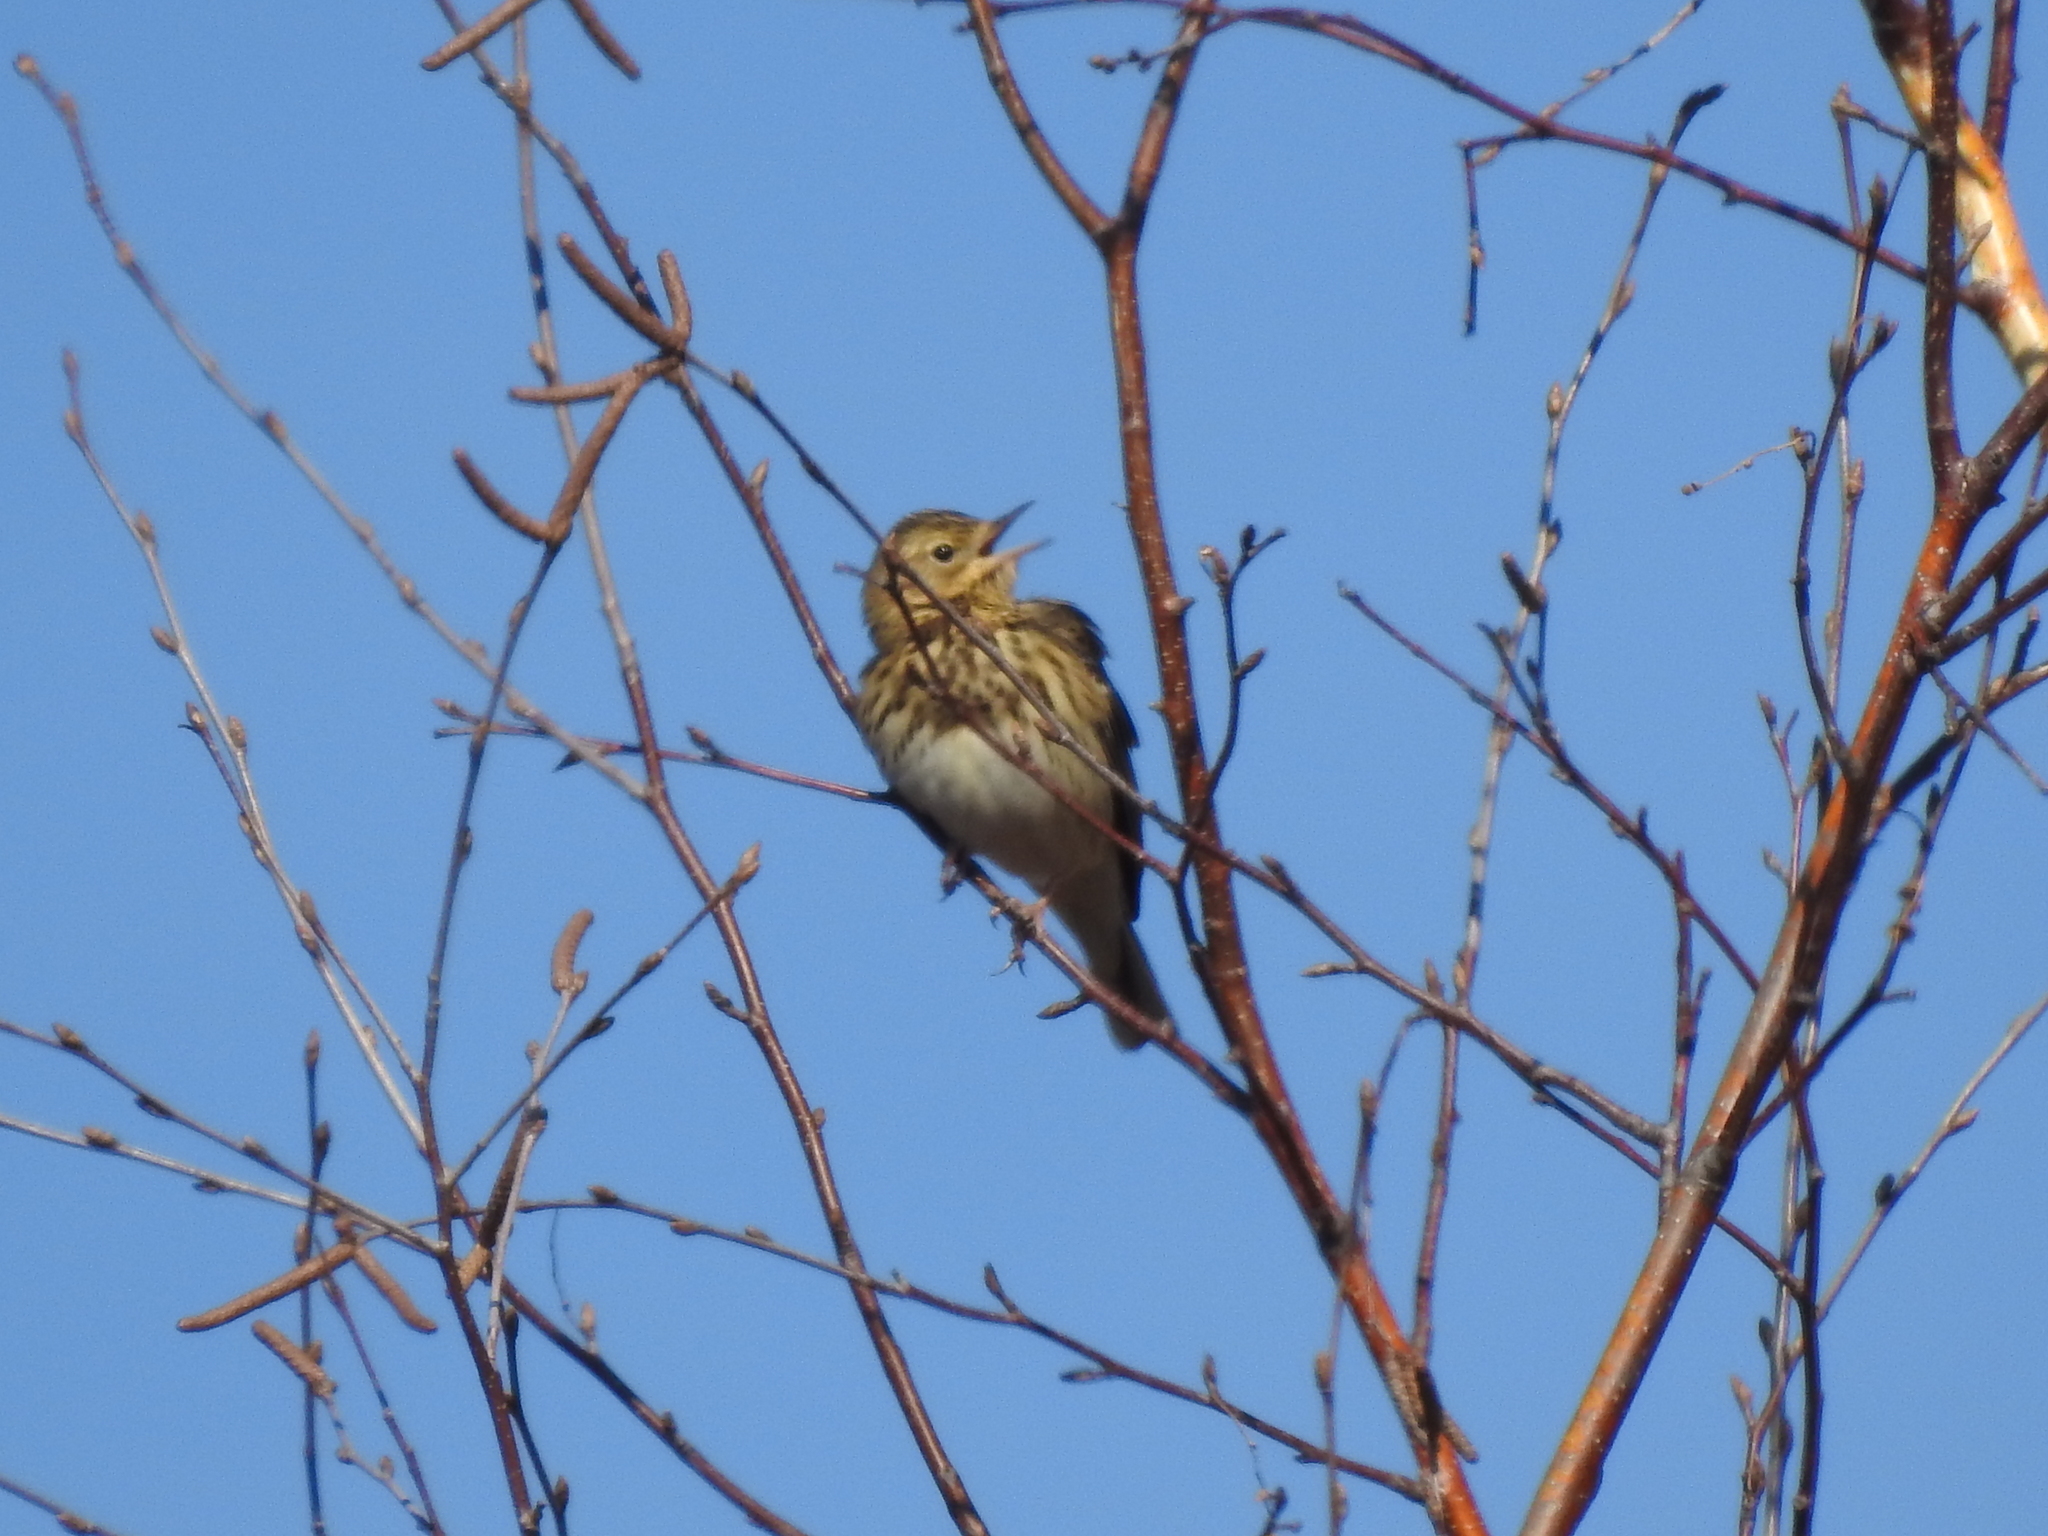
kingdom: Animalia
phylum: Chordata
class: Aves
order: Passeriformes
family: Motacillidae
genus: Anthus
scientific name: Anthus trivialis
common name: Tree pipit
